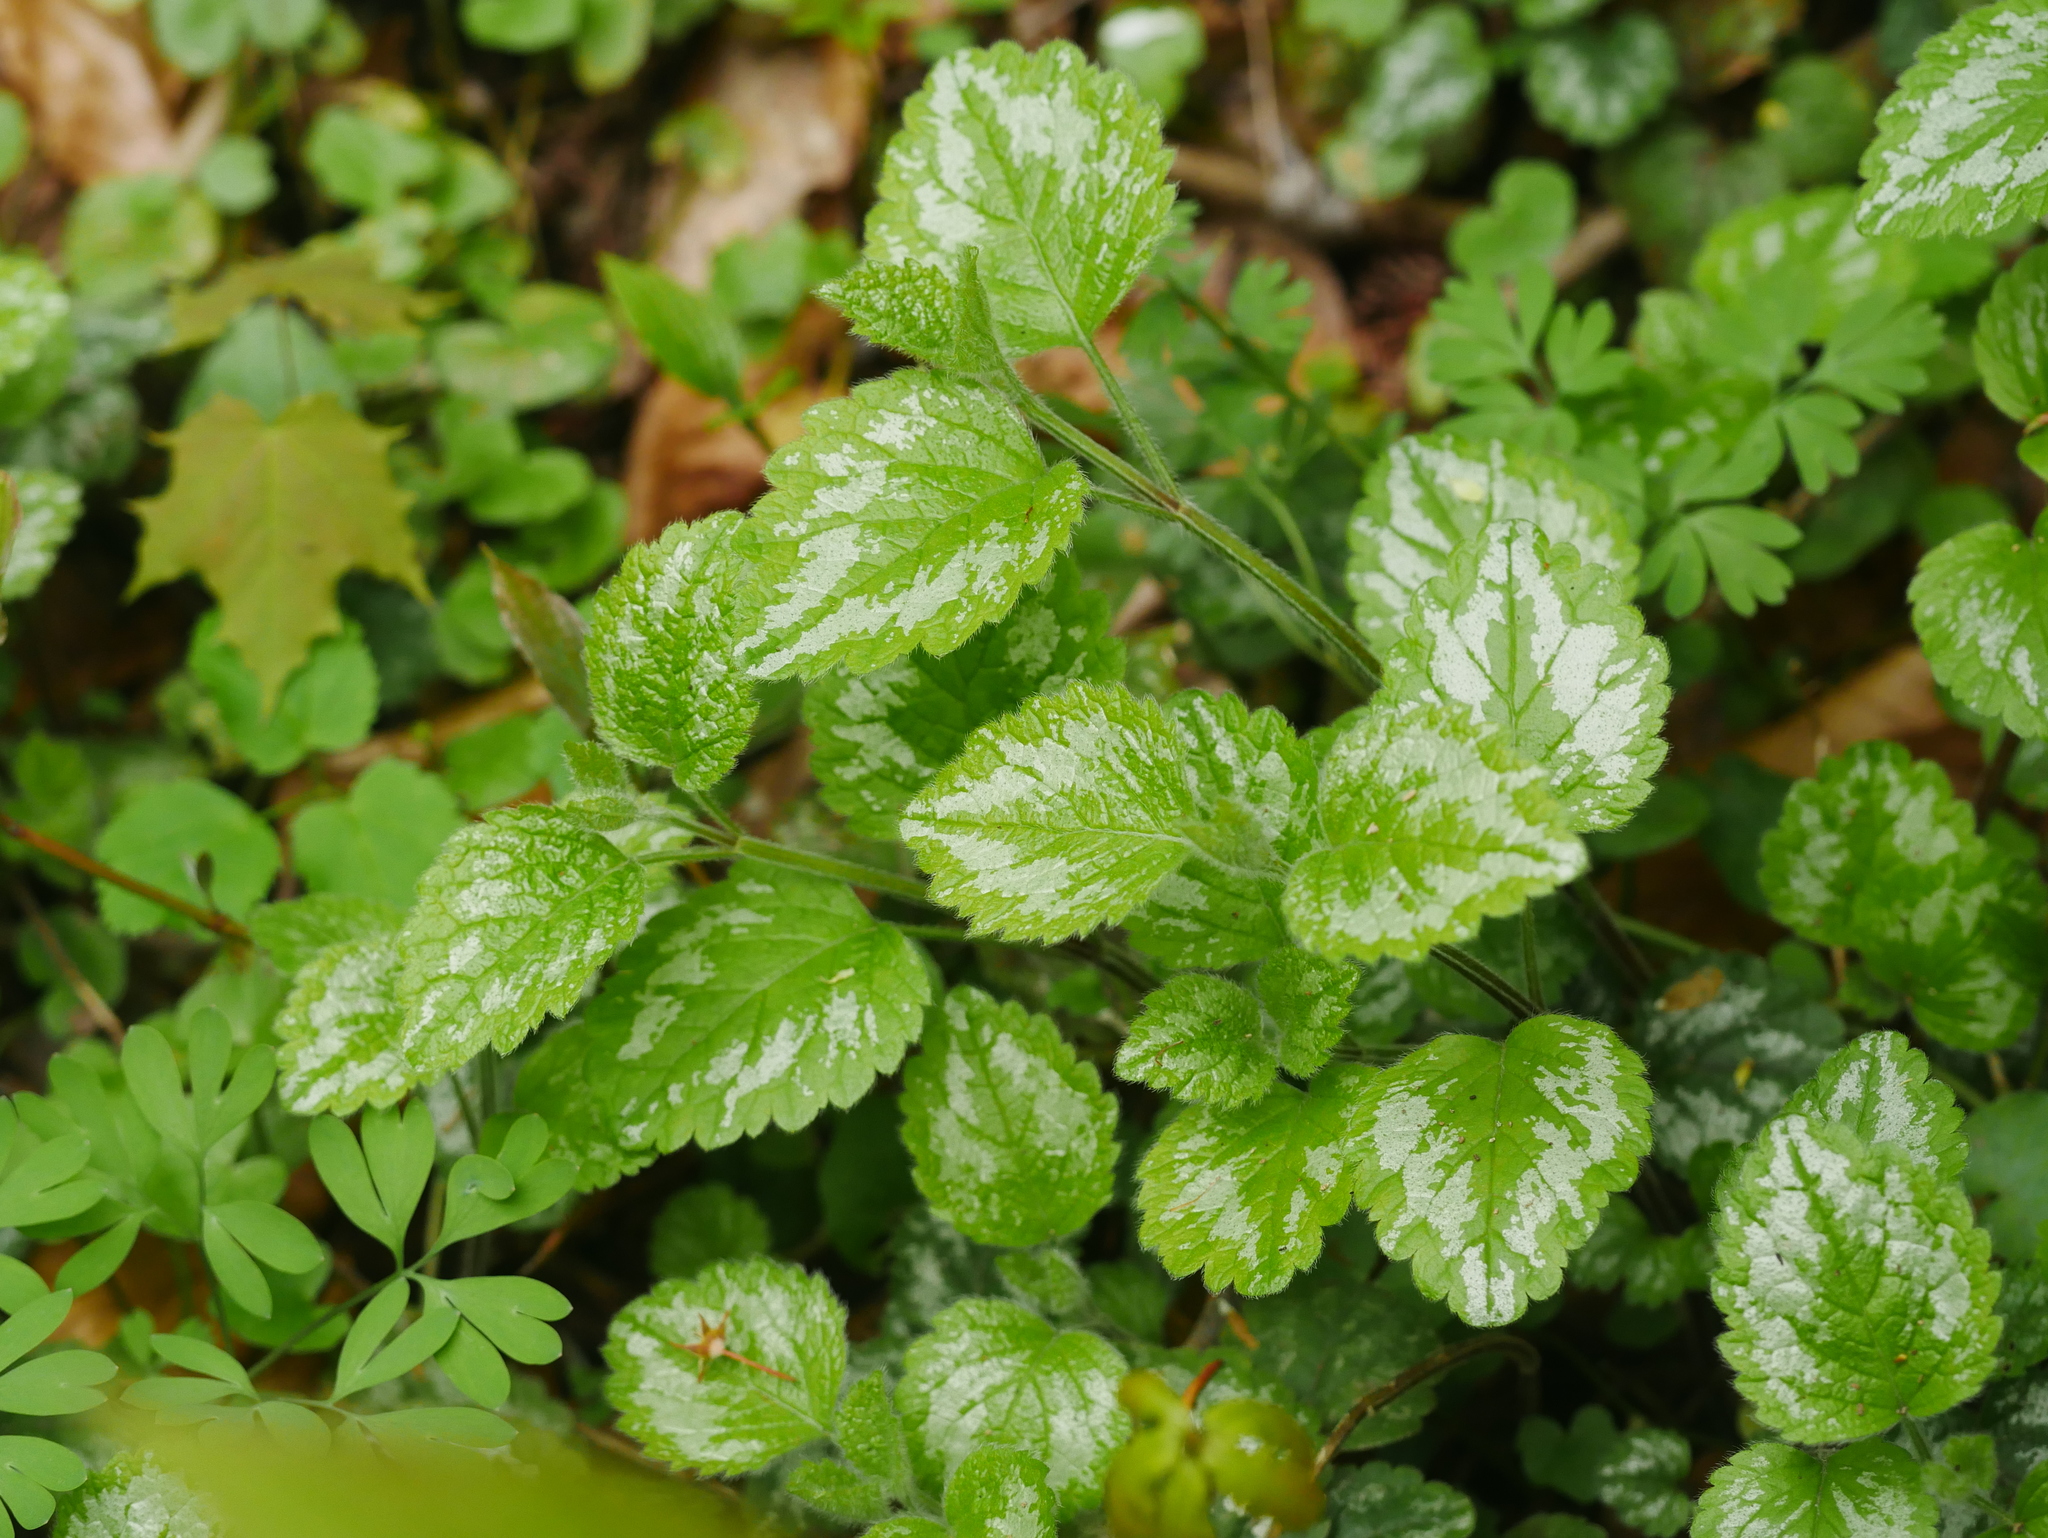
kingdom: Plantae
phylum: Tracheophyta
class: Magnoliopsida
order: Lamiales
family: Lamiaceae
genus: Lamium
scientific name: Lamium galeobdolon
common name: Yellow archangel
